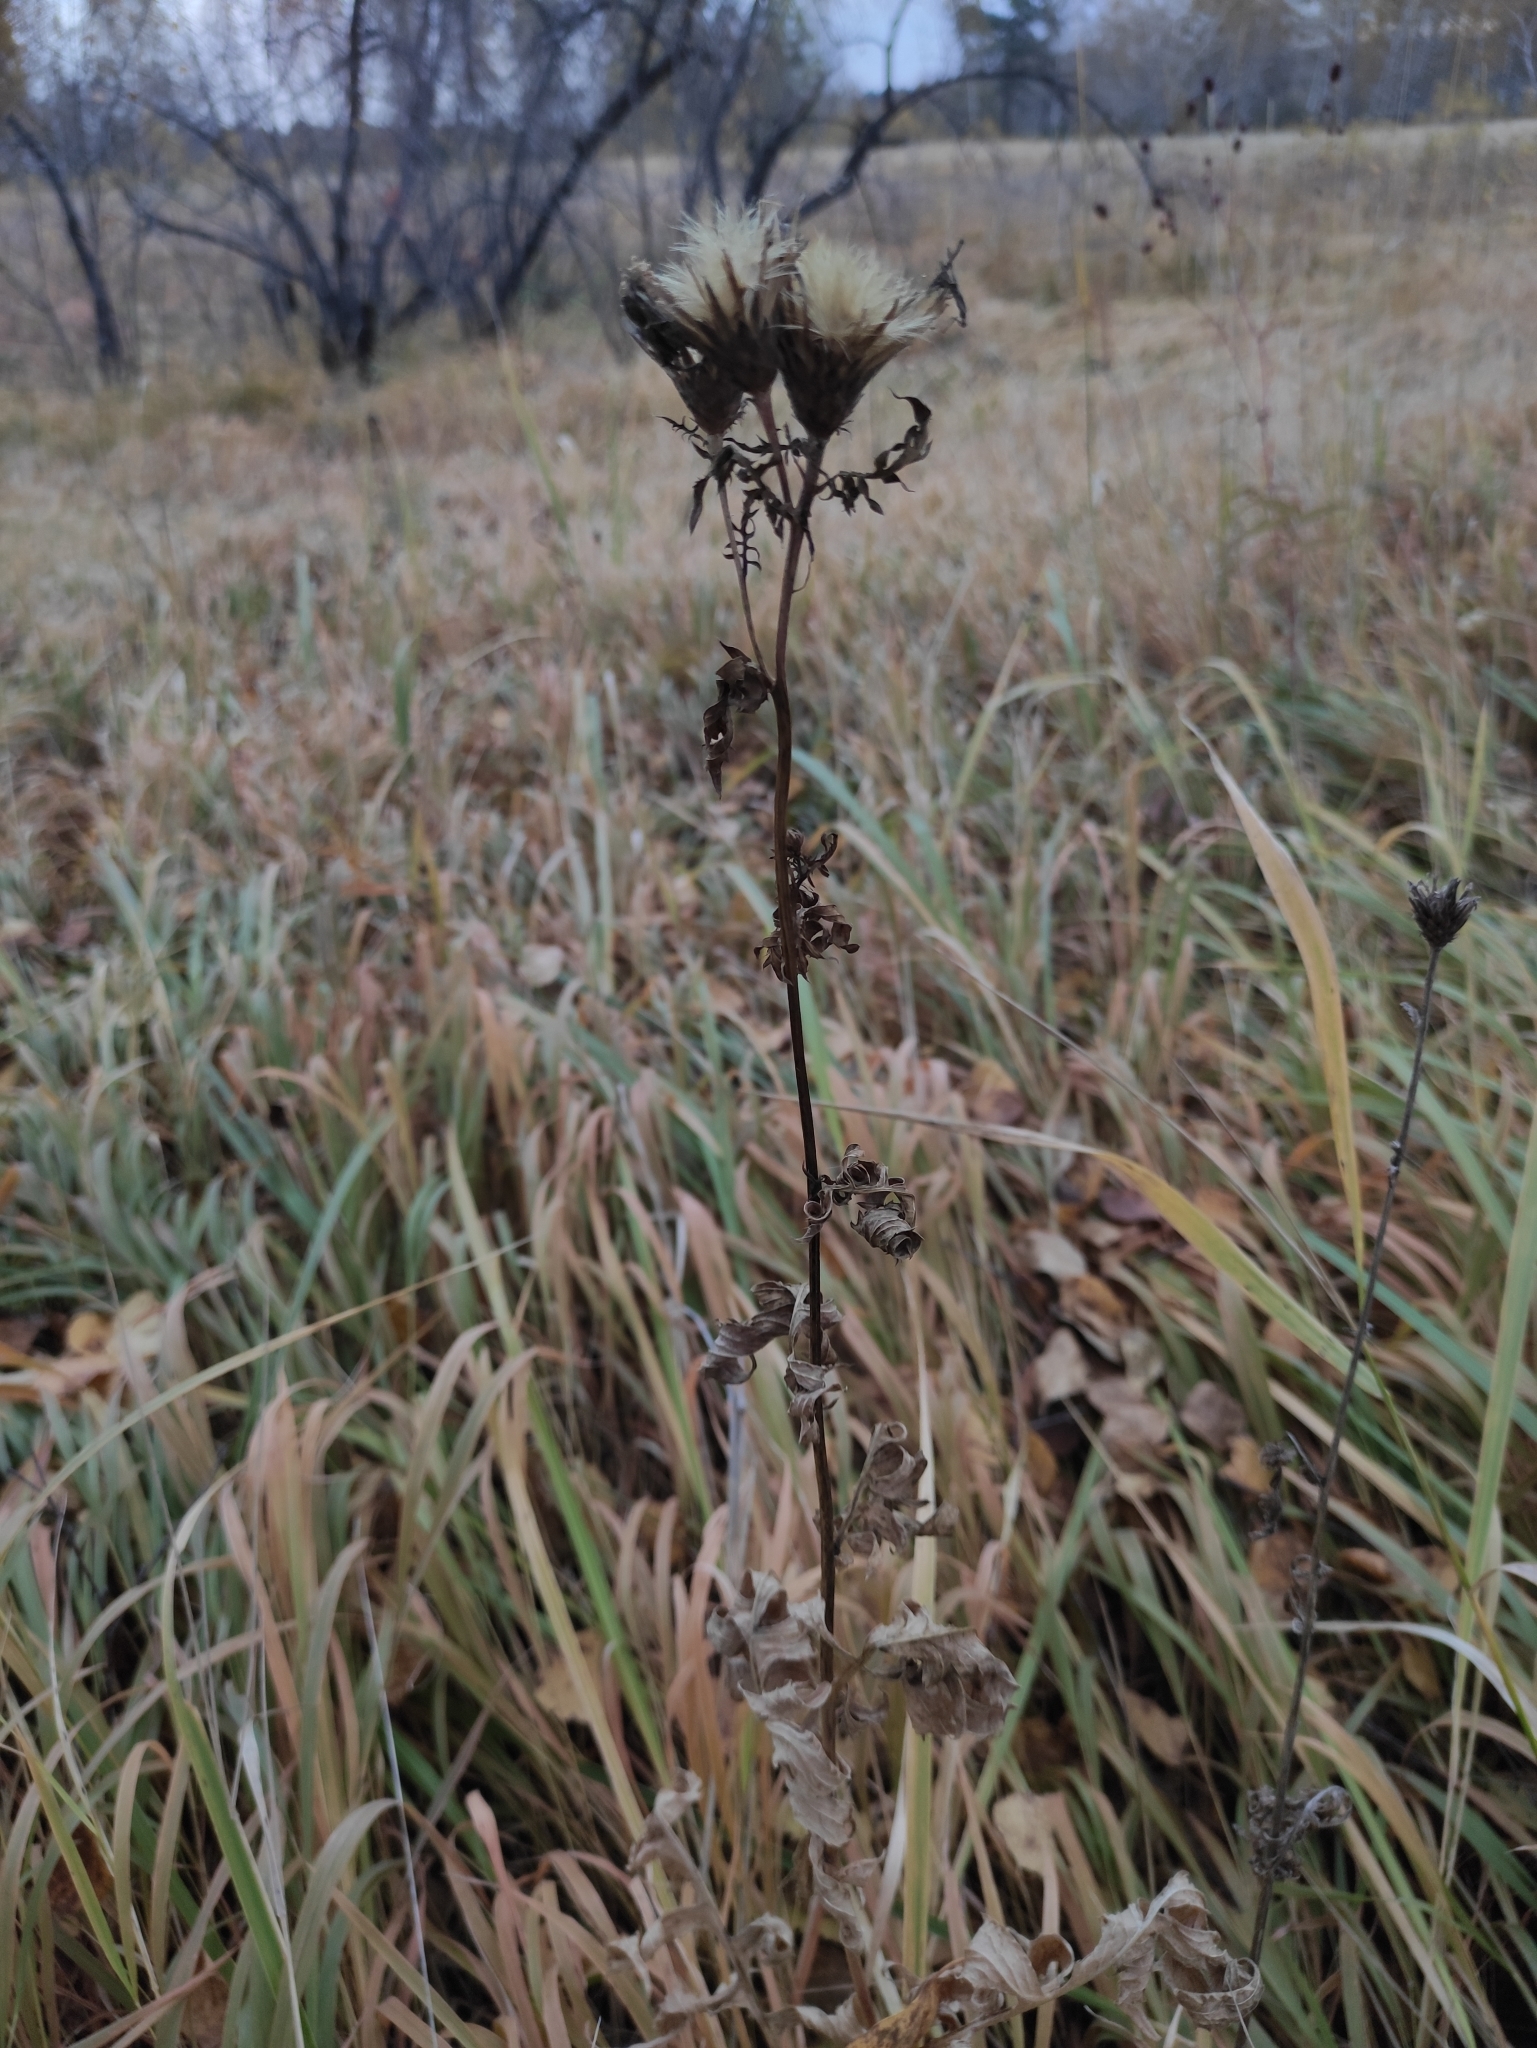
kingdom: Plantae
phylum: Tracheophyta
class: Magnoliopsida
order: Asterales
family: Asteraceae
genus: Serratula
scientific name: Serratula coronata
